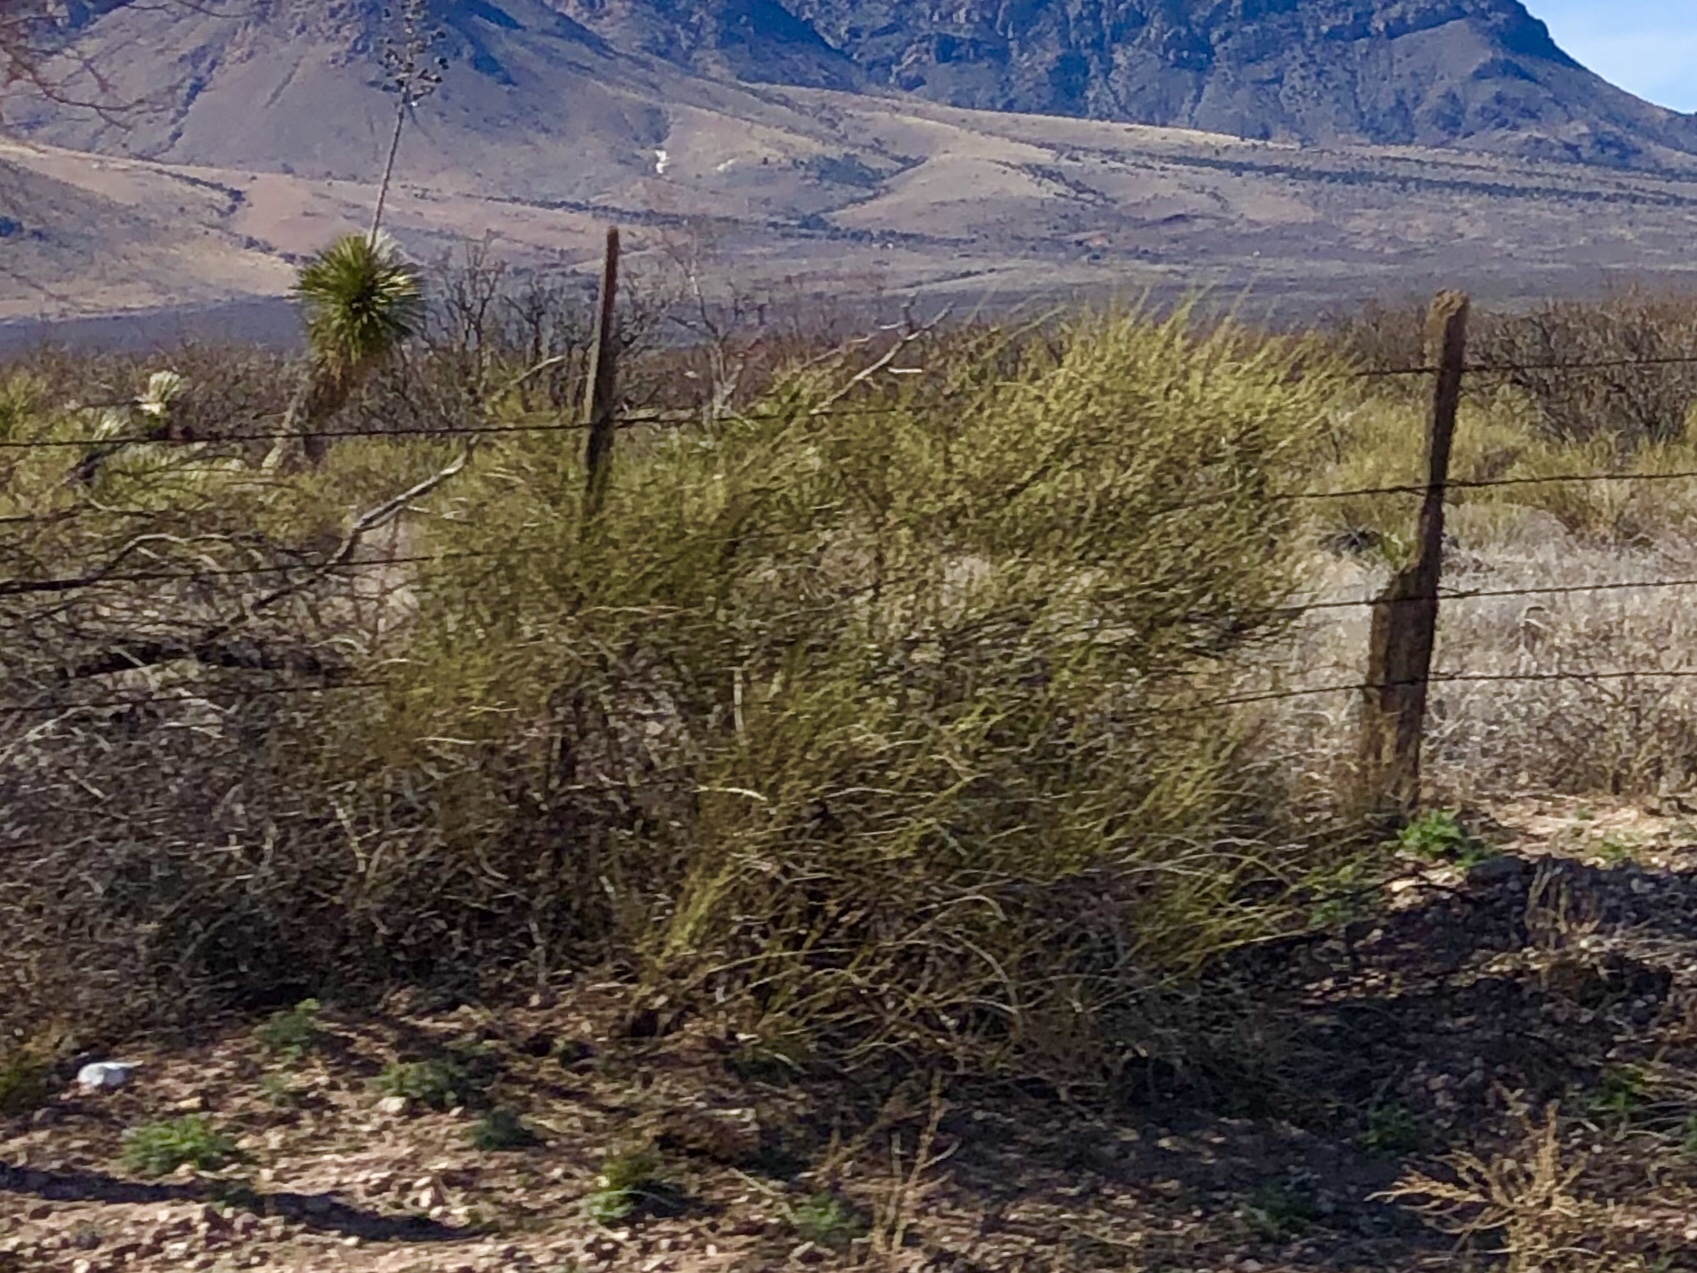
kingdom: Plantae
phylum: Tracheophyta
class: Gnetopsida
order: Ephedrales
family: Ephedraceae
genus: Ephedra
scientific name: Ephedra trifurca
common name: Mexican-tea
